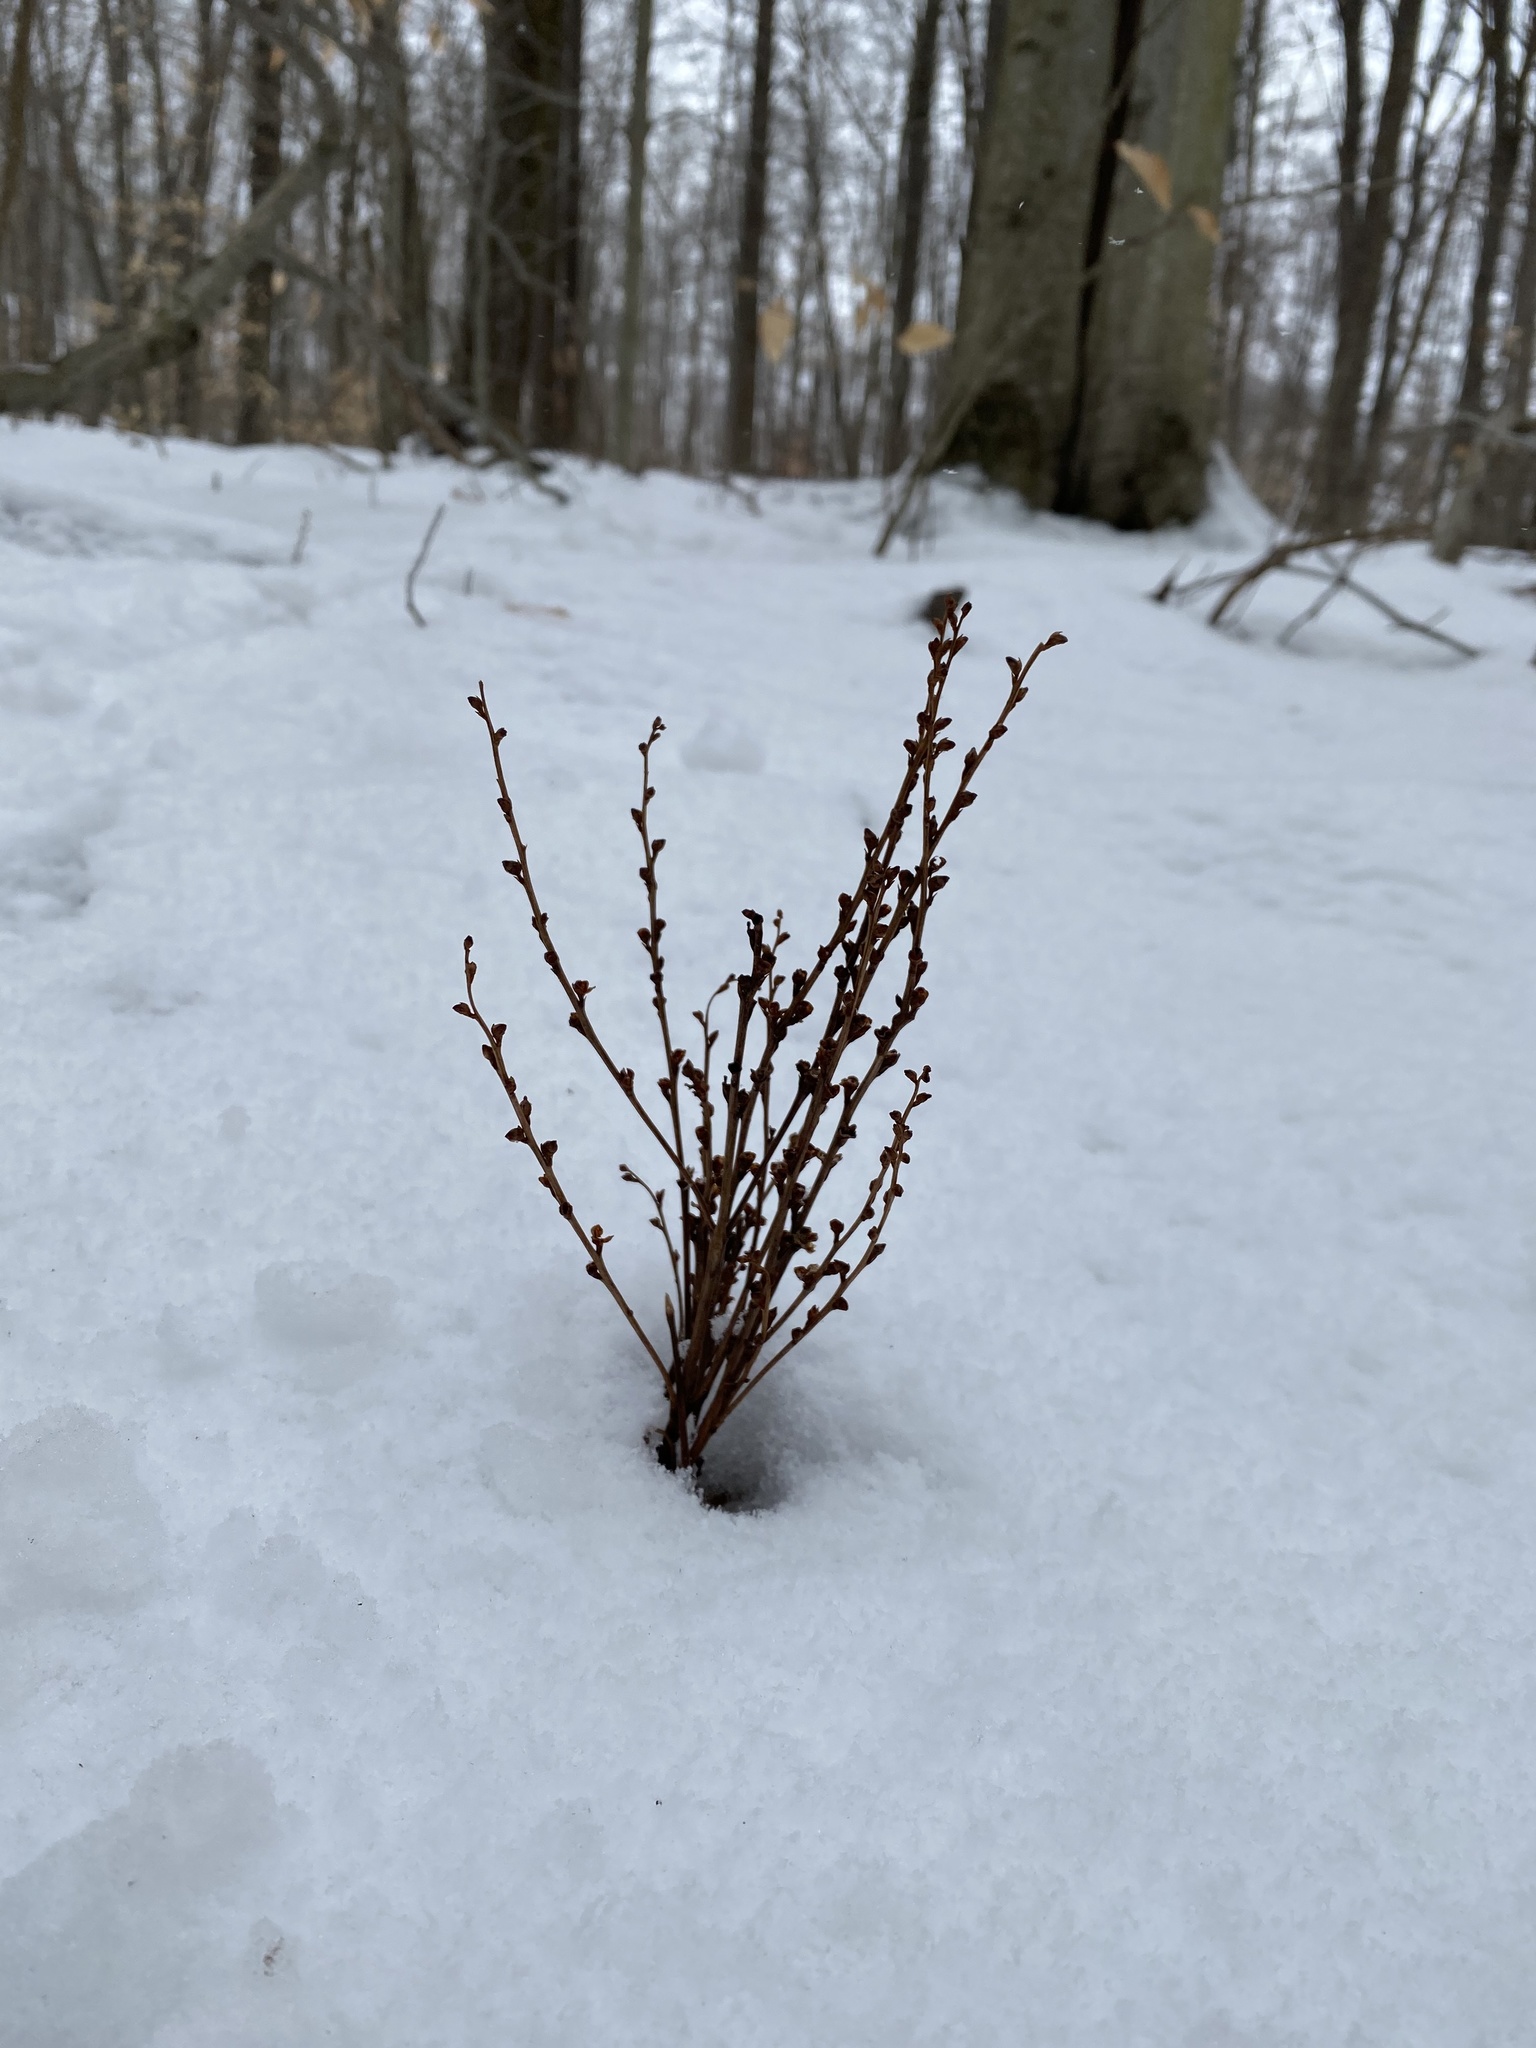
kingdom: Plantae
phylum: Tracheophyta
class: Magnoliopsida
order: Lamiales
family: Orobanchaceae
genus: Epifagus
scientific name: Epifagus virginiana
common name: Beechdrops
